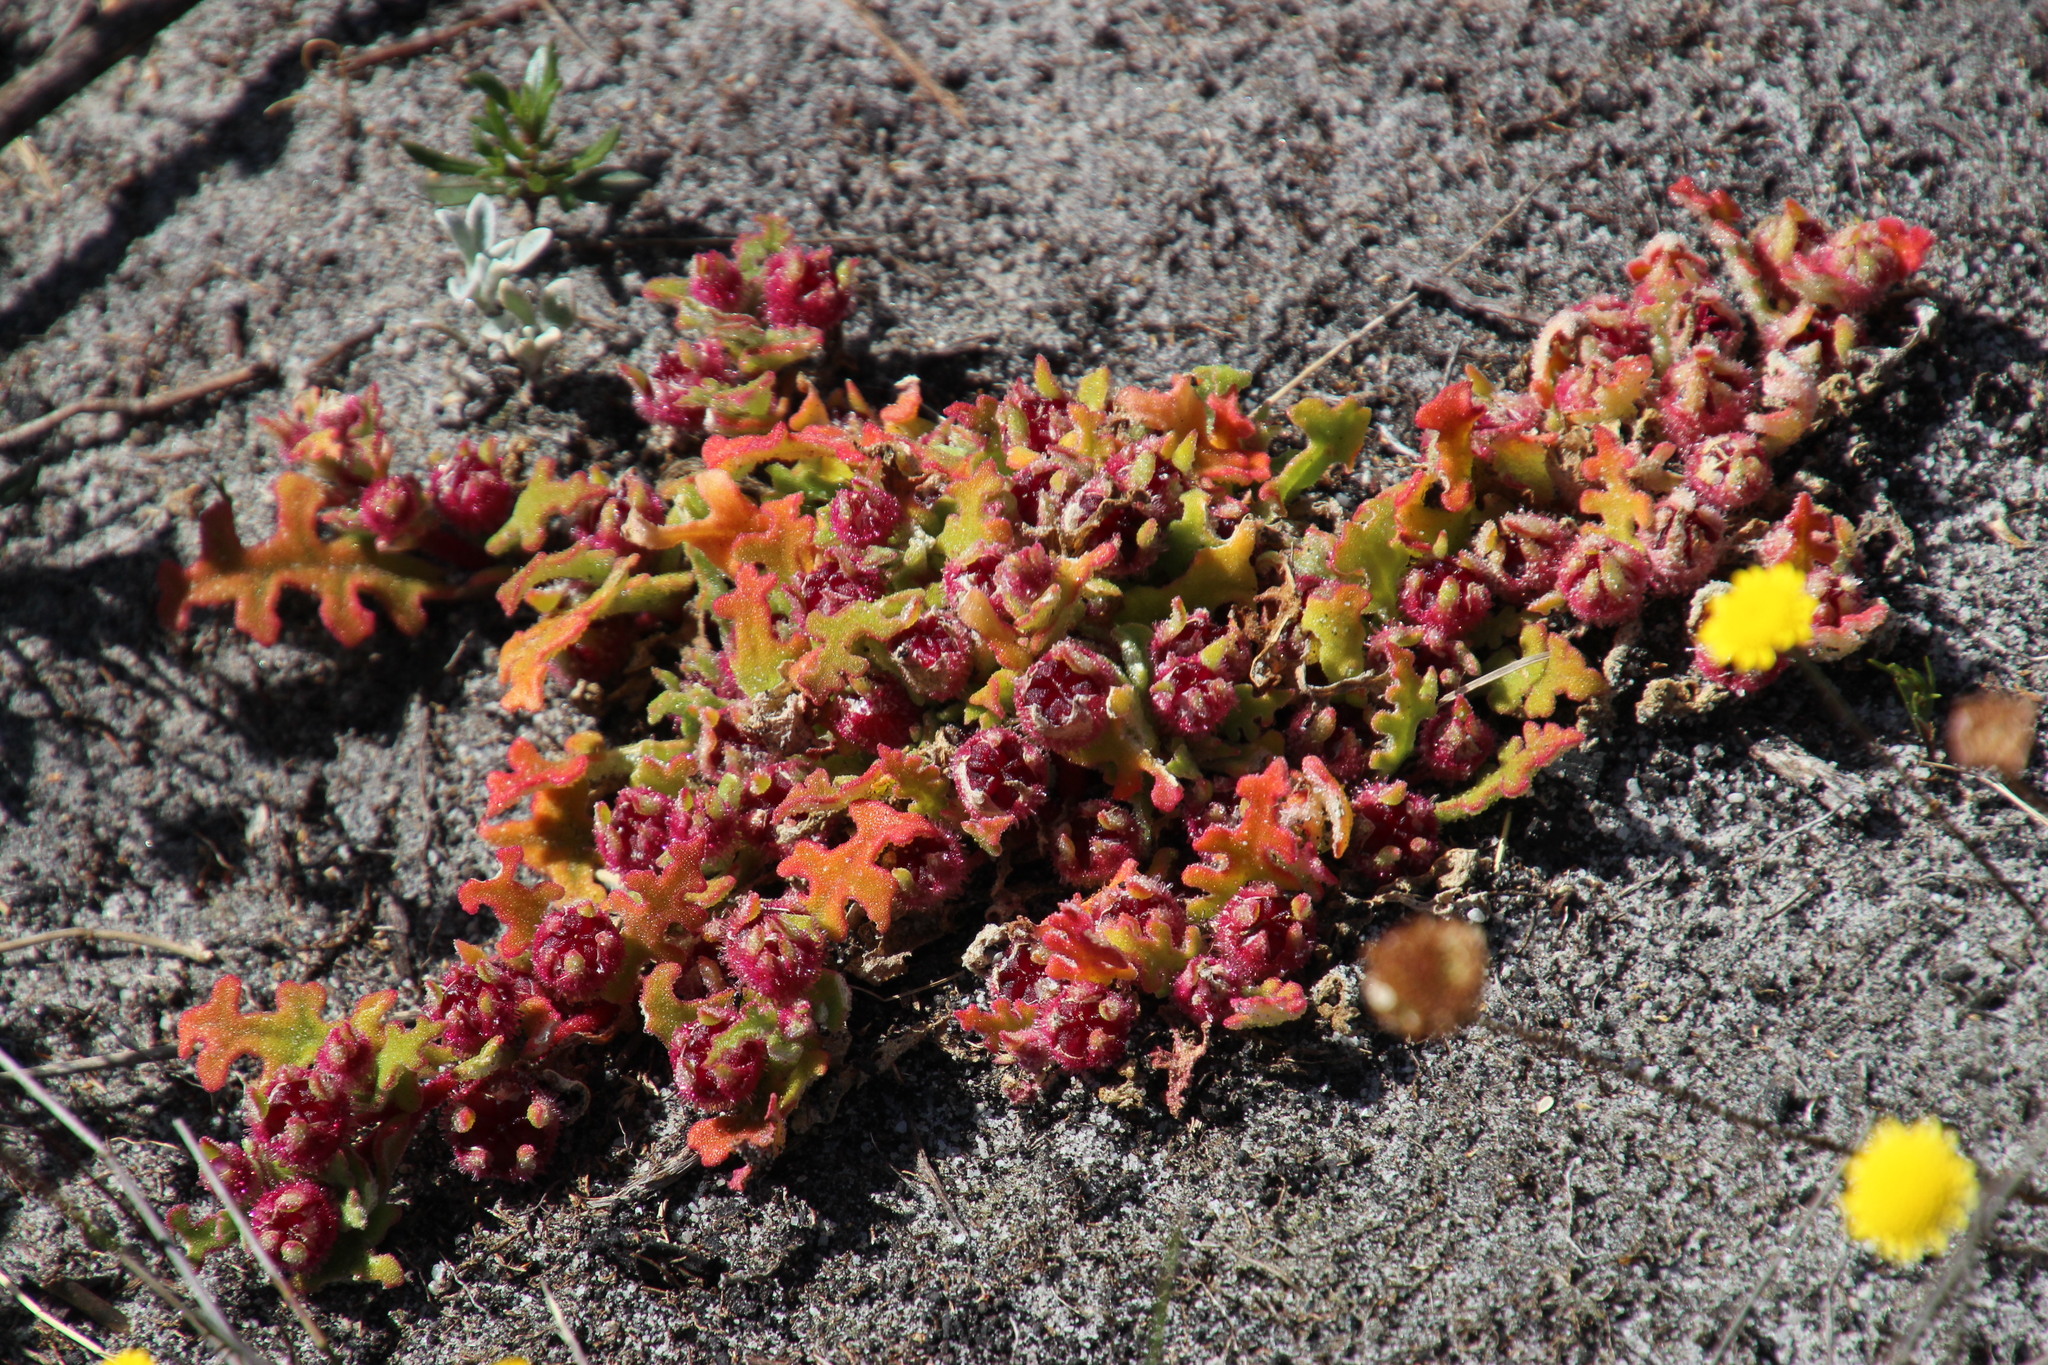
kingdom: Plantae
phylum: Tracheophyta
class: Magnoliopsida
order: Caryophyllales
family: Aizoaceae
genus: Cleretum
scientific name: Cleretum herrei
